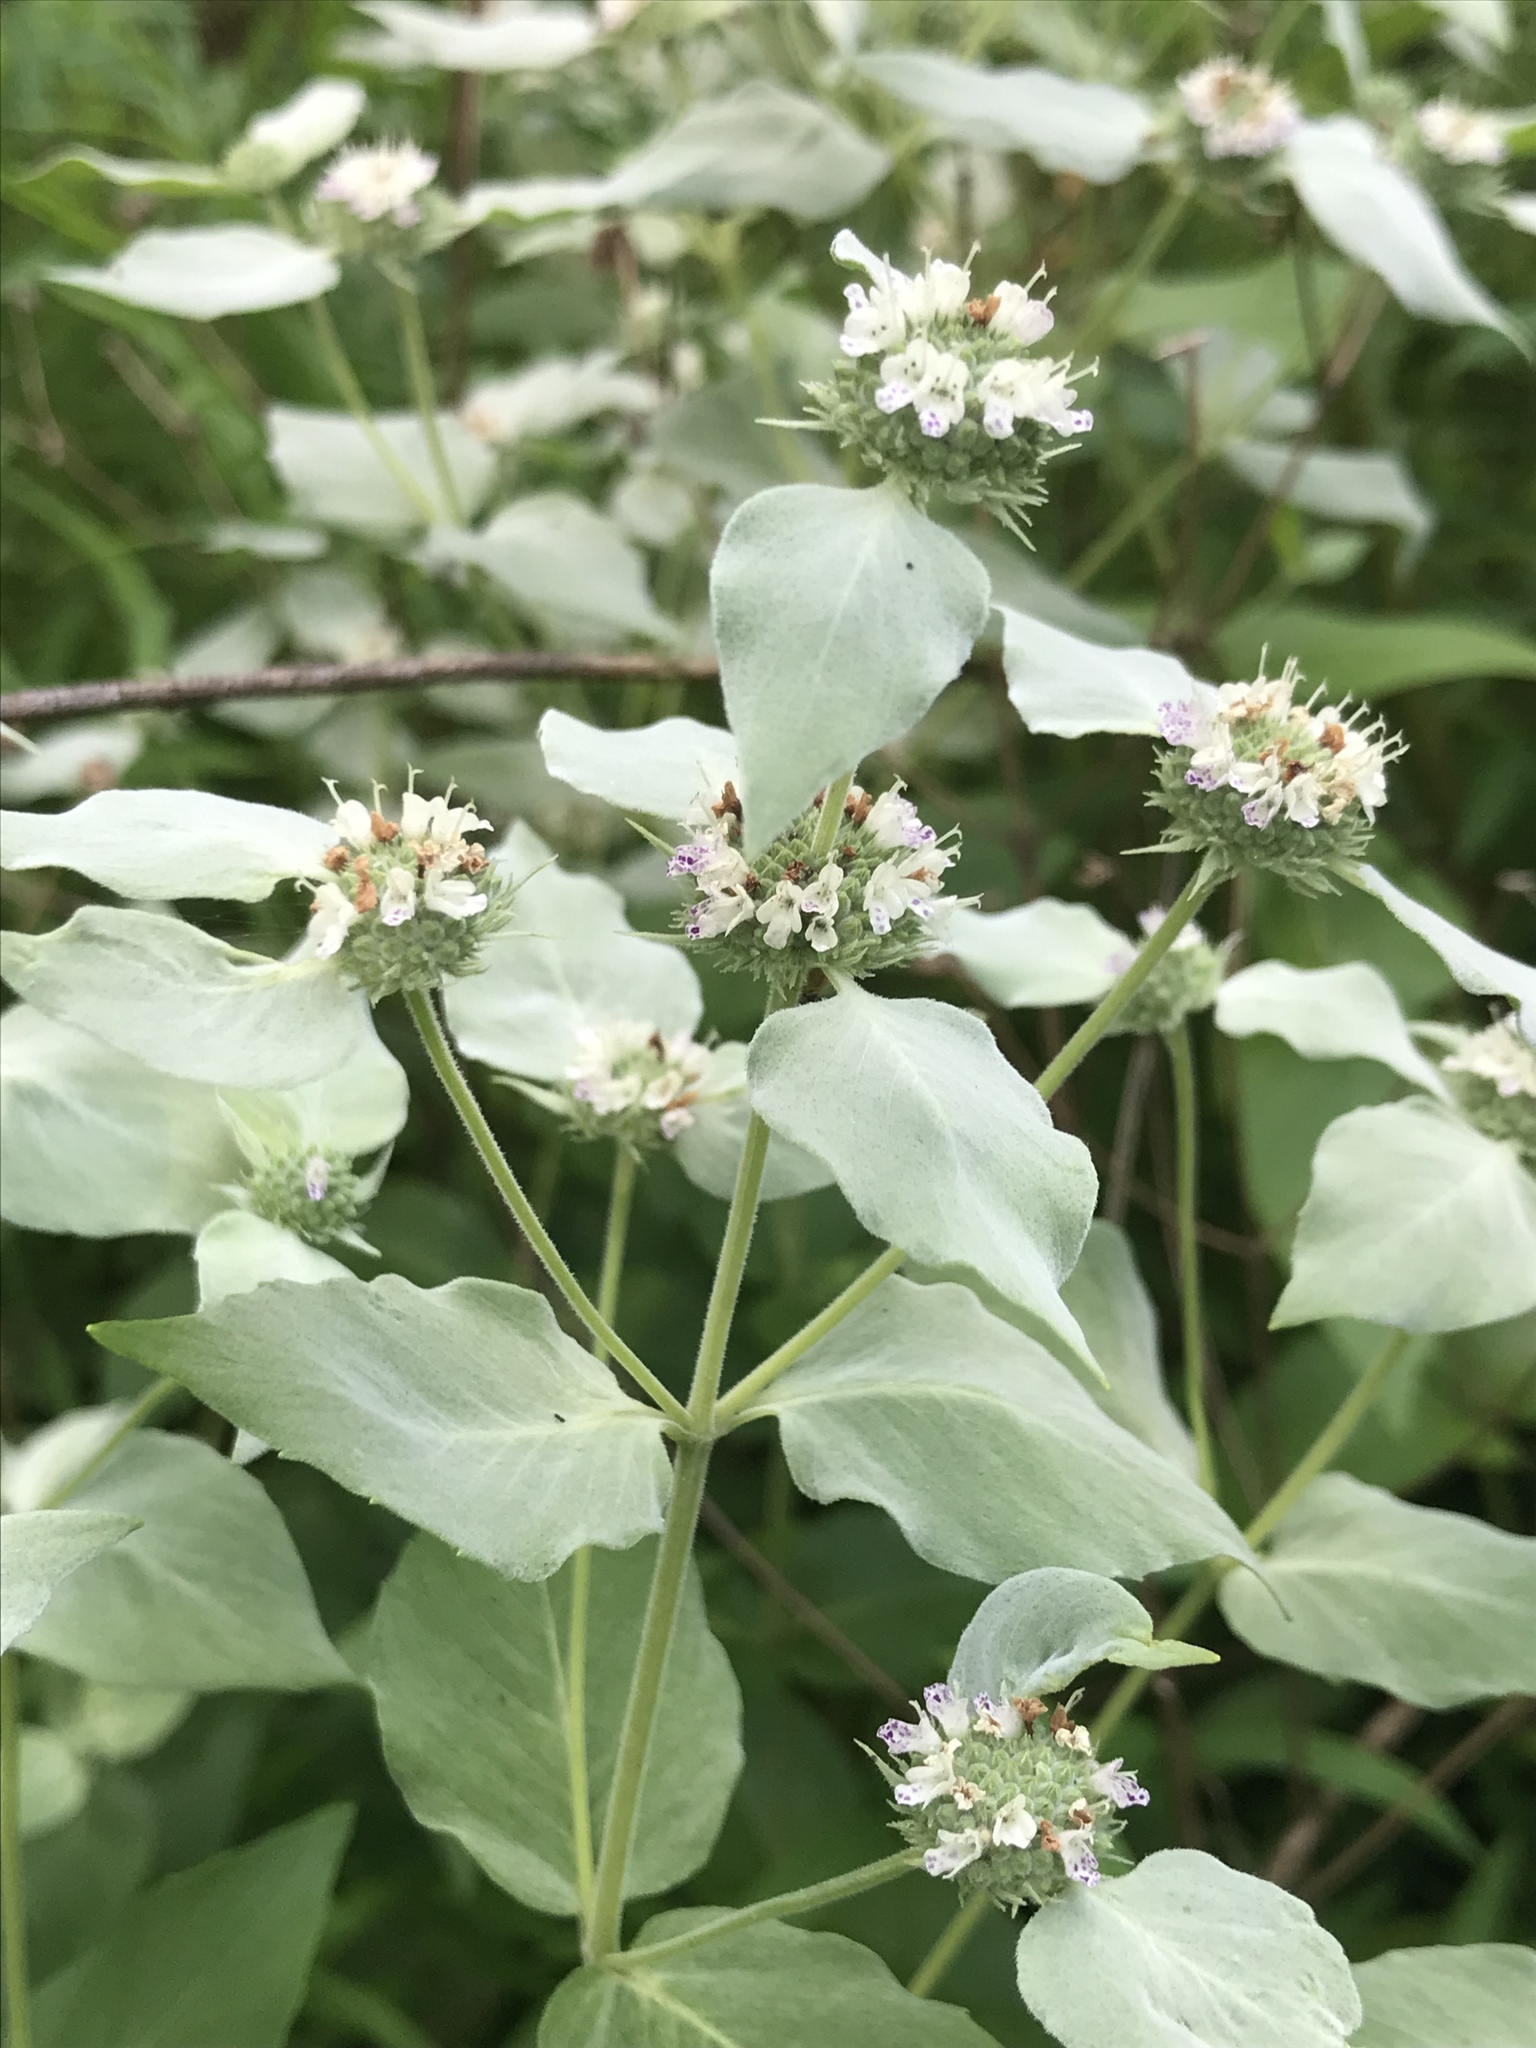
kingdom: Plantae
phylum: Tracheophyta
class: Magnoliopsida
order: Lamiales
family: Lamiaceae
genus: Pycnanthemum
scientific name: Pycnanthemum muticum
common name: Blunt mountain-mint
